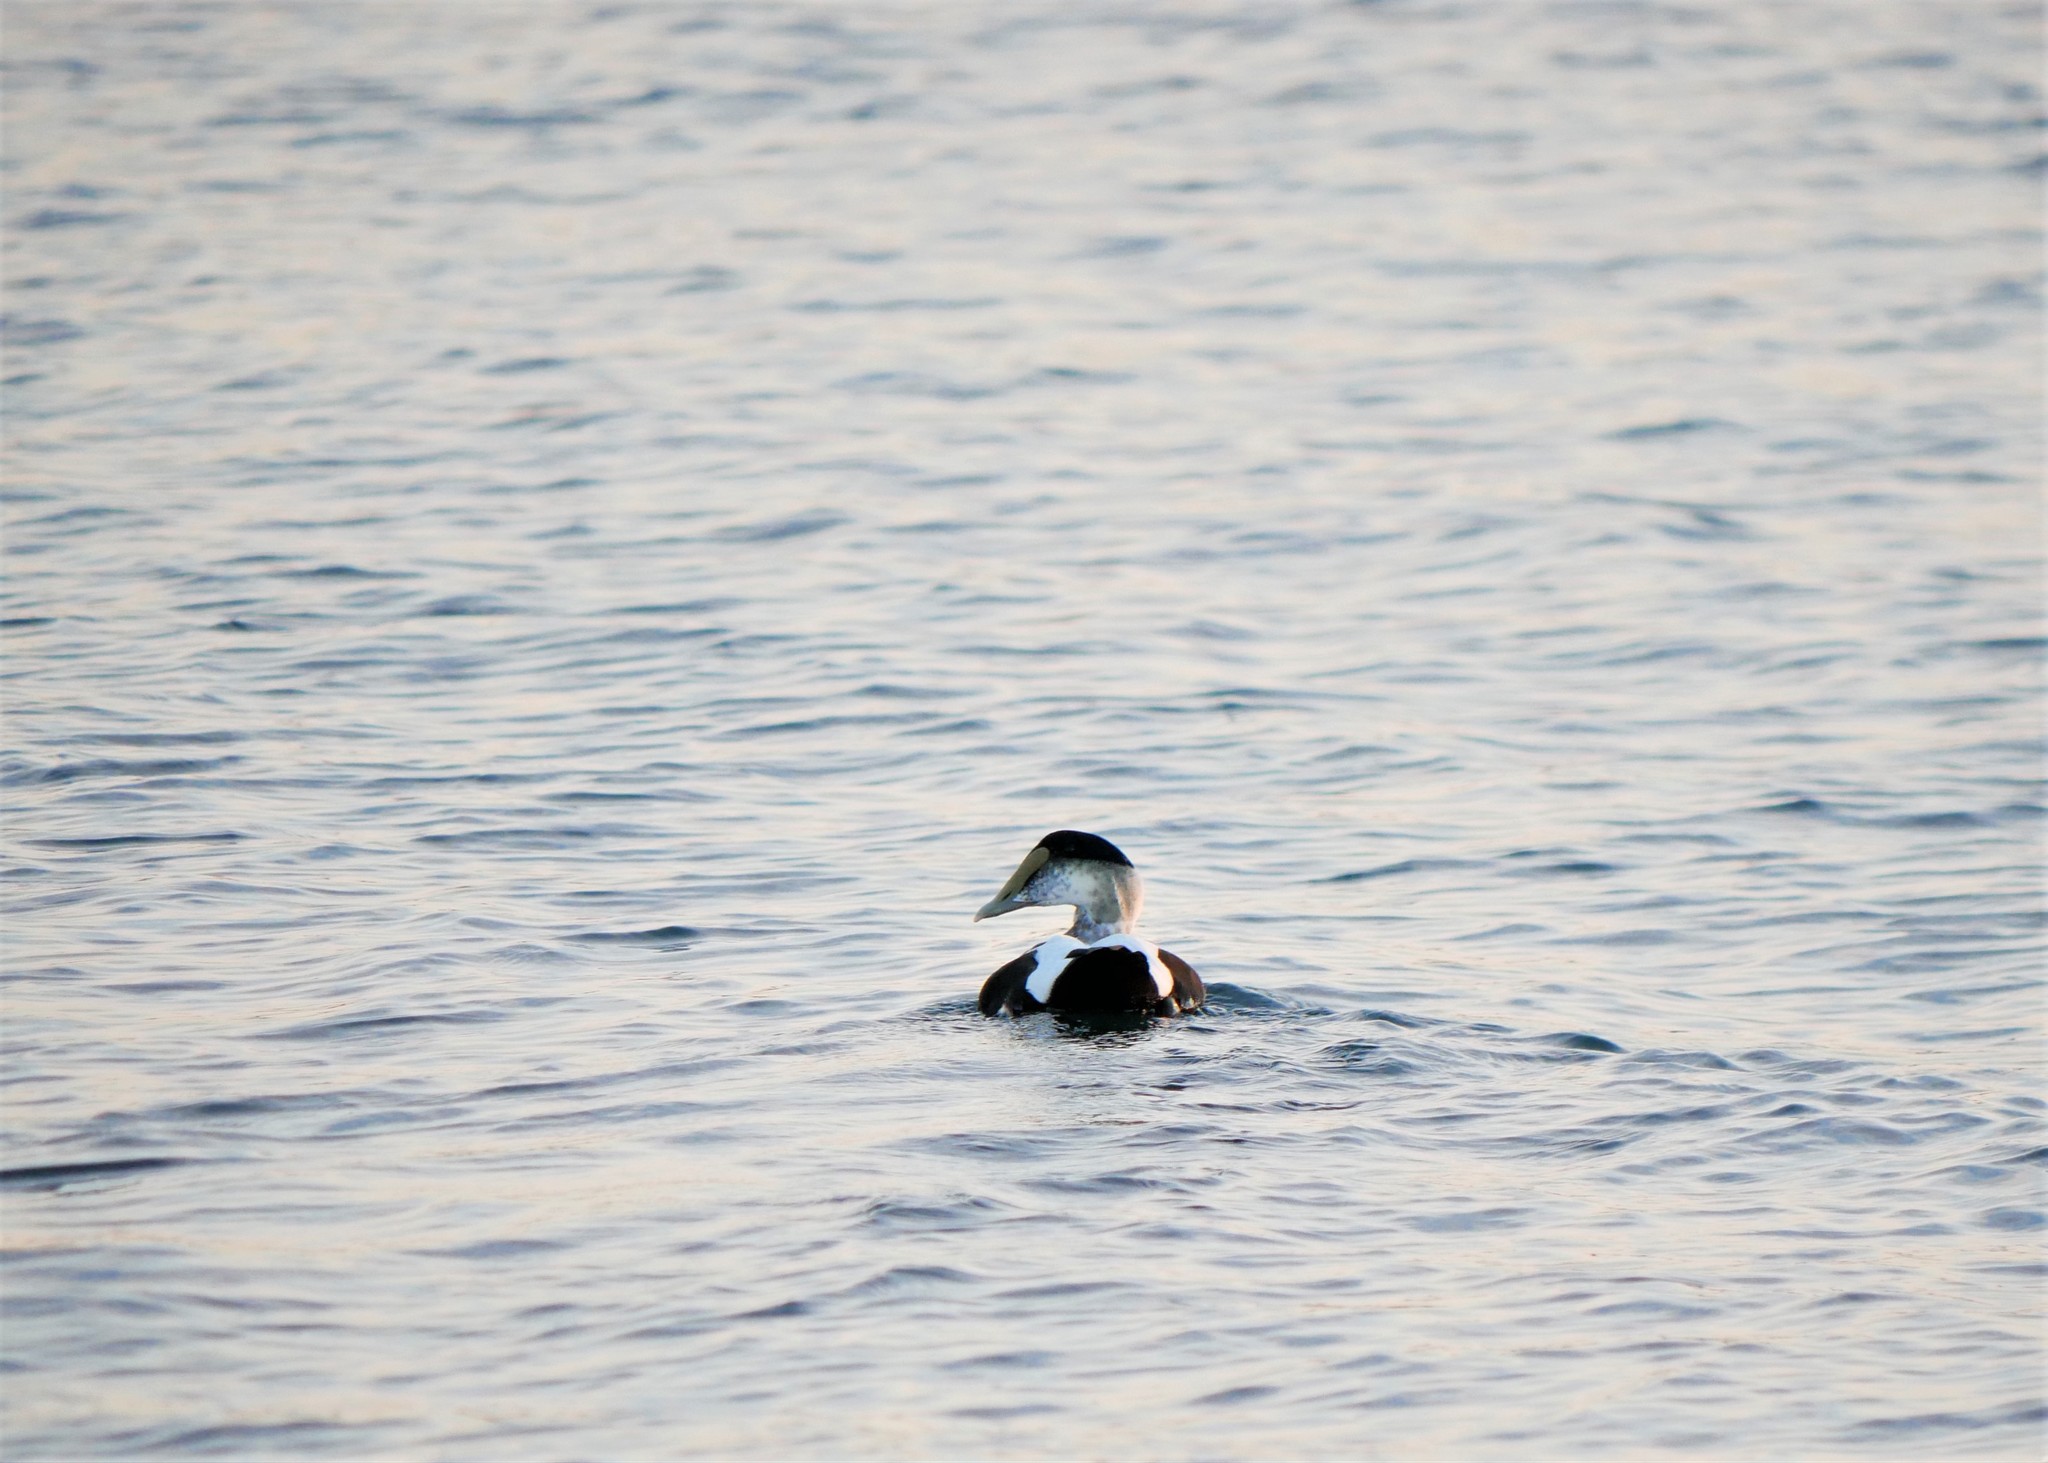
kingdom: Animalia
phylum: Chordata
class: Aves
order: Anseriformes
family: Anatidae
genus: Somateria
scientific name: Somateria mollissima
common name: Common eider
